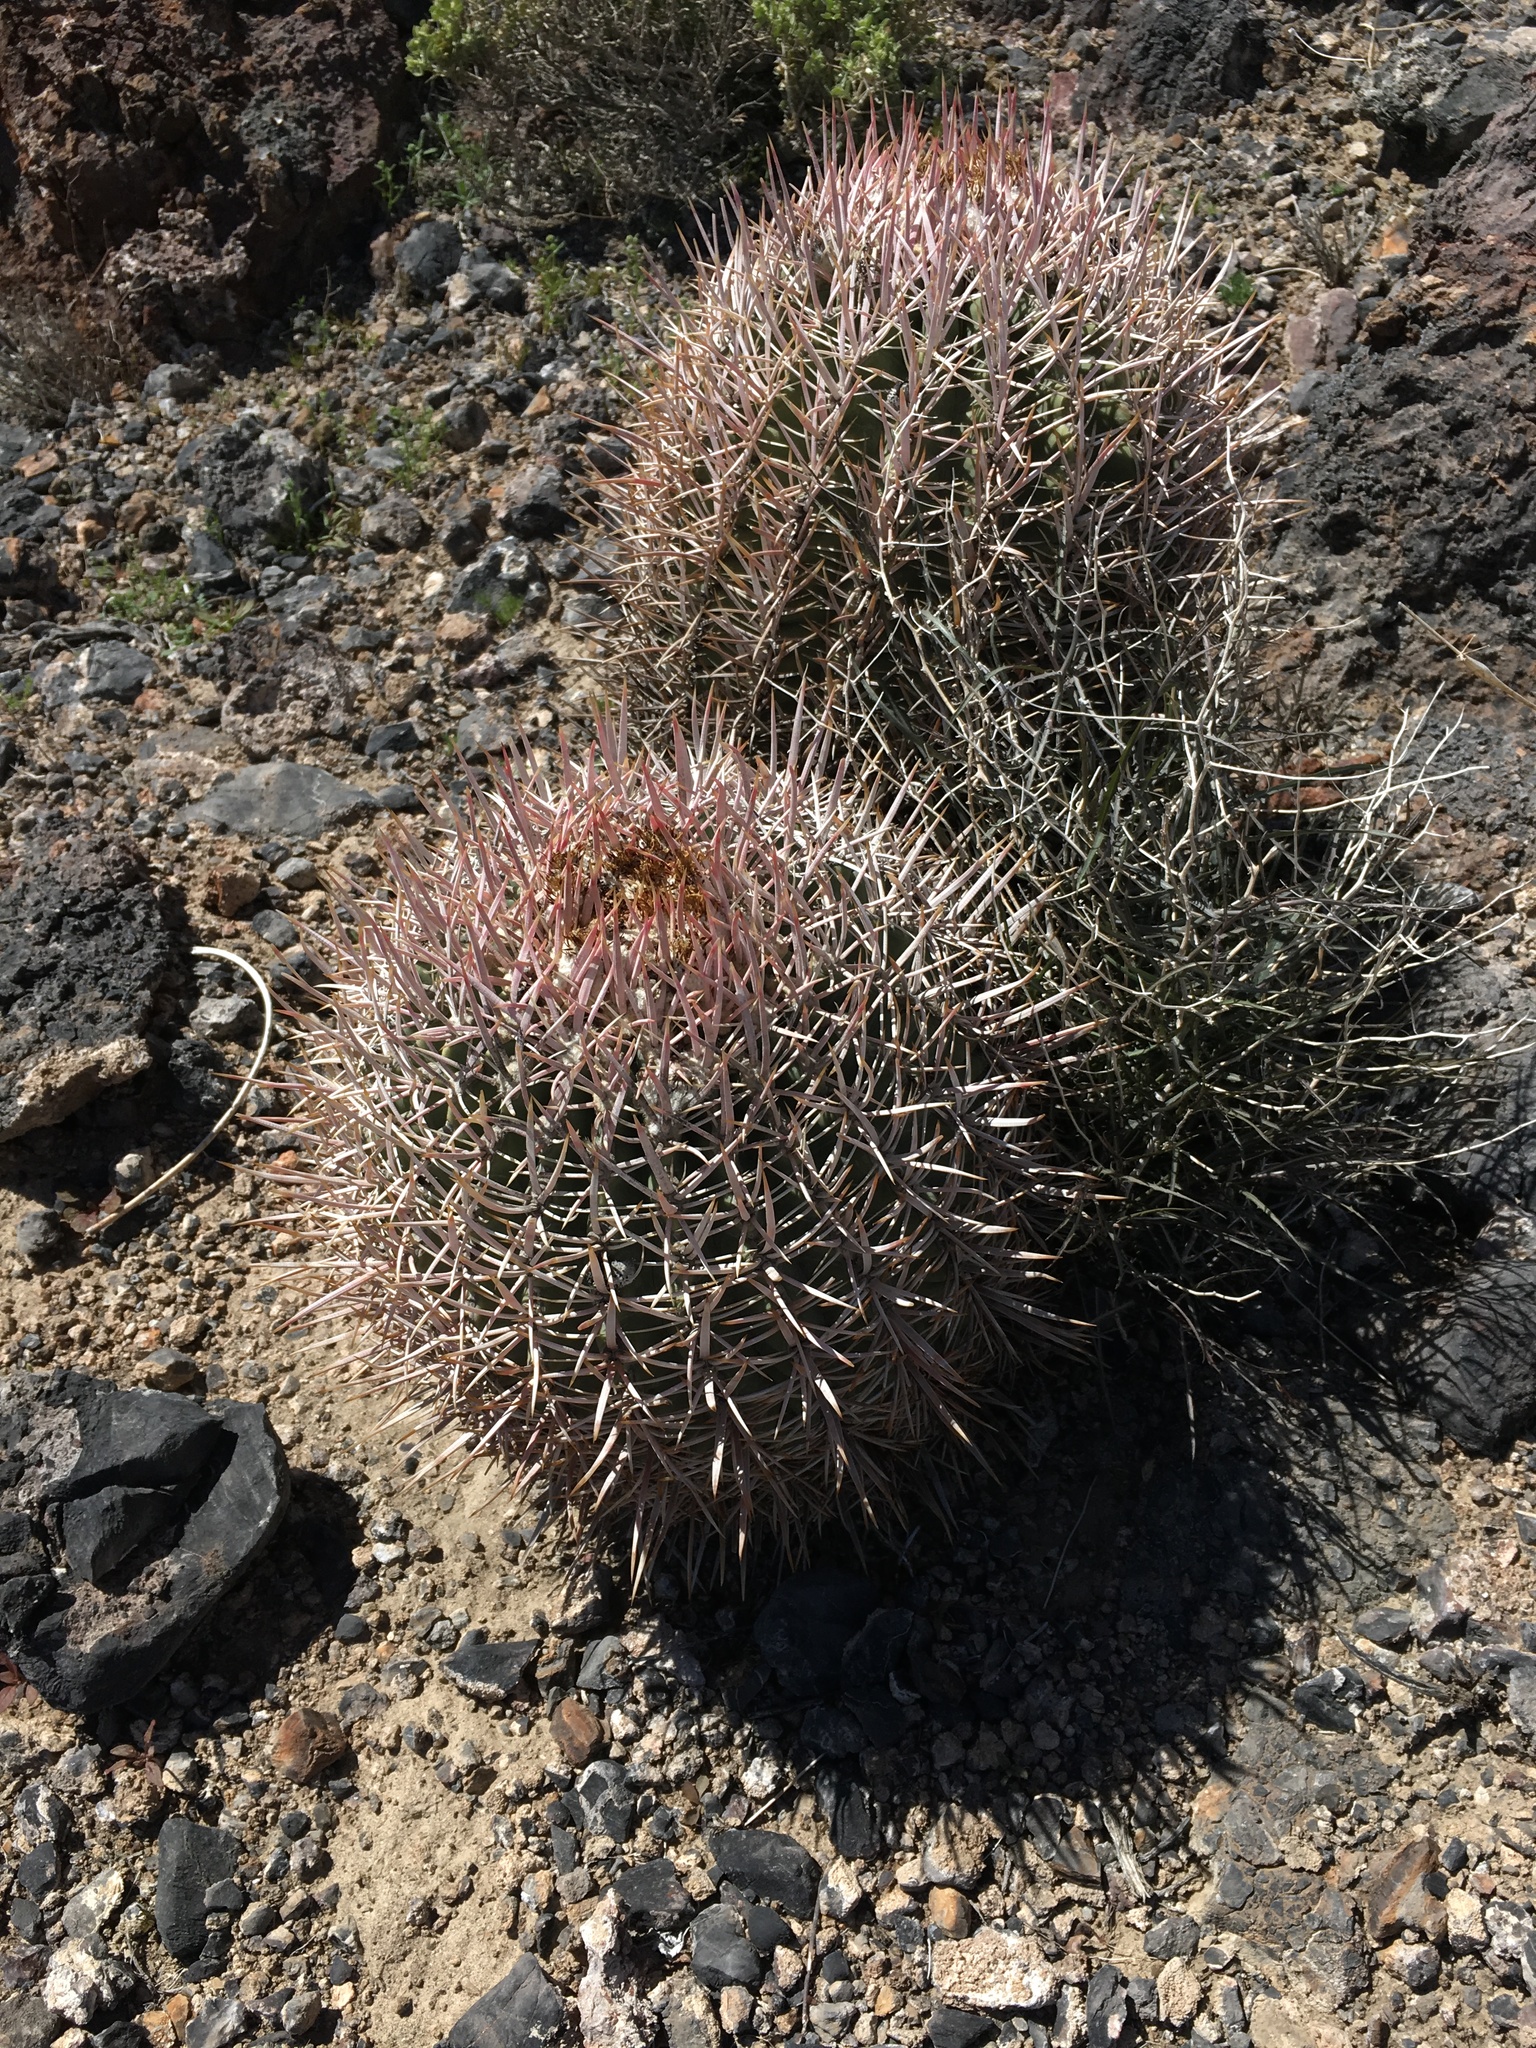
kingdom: Plantae
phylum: Tracheophyta
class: Magnoliopsida
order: Caryophyllales
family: Cactaceae
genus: Echinocactus
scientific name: Echinocactus polycephalus
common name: Cottontop cactus
